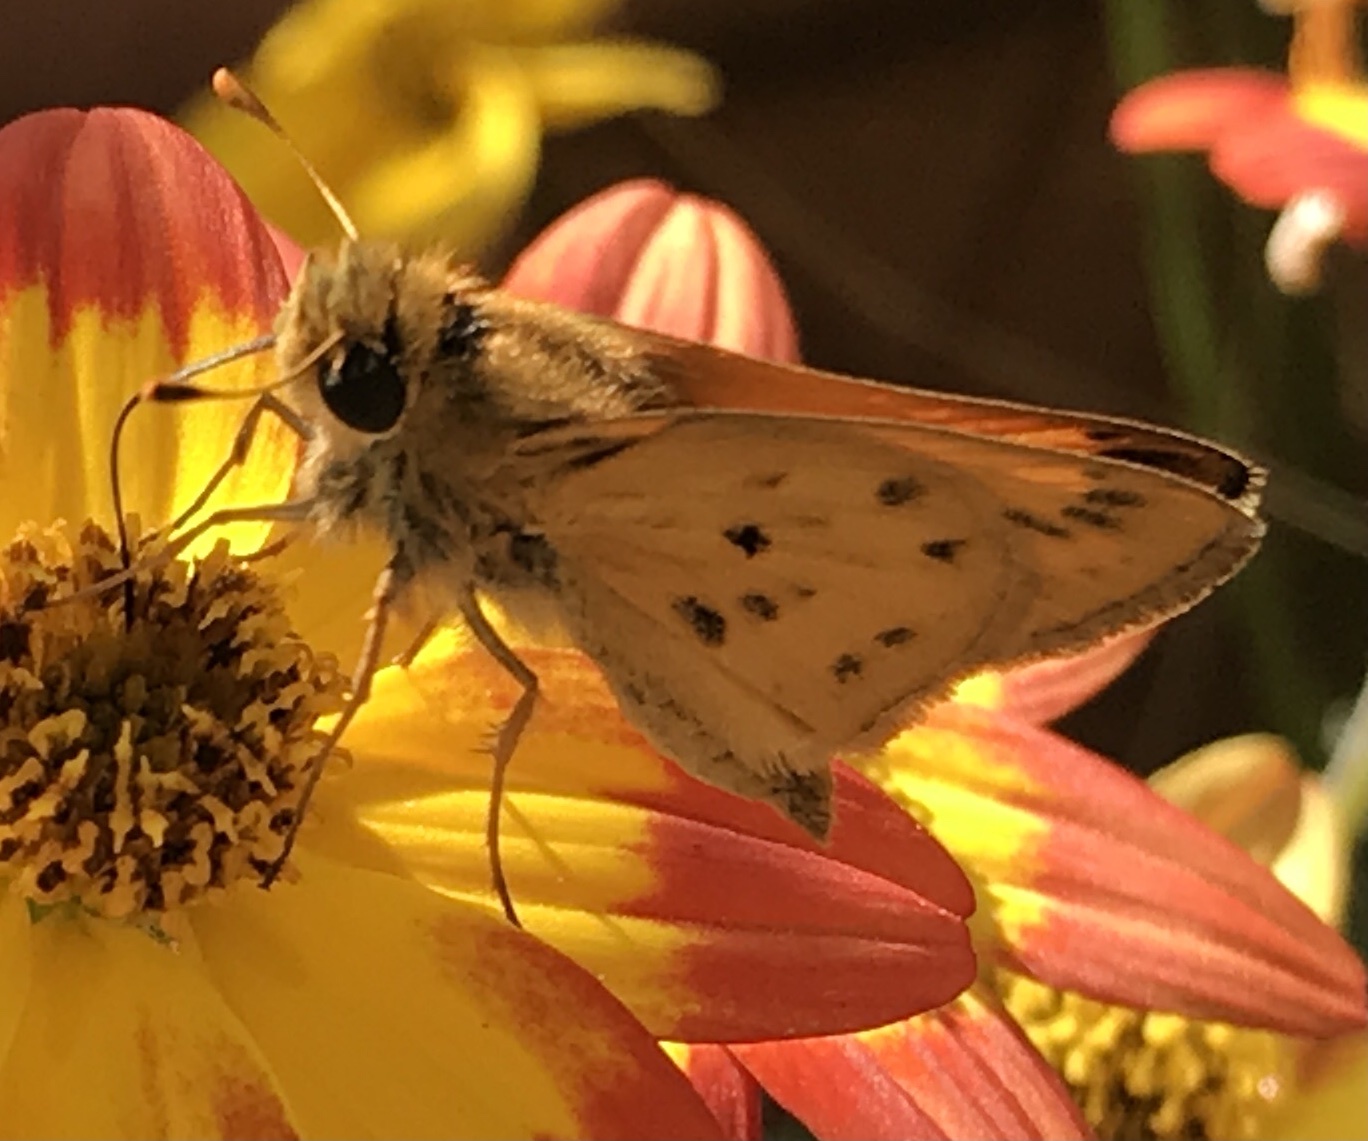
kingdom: Animalia
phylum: Arthropoda
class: Insecta
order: Lepidoptera
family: Hesperiidae
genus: Hylephila
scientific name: Hylephila phyleus
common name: Fiery skipper
